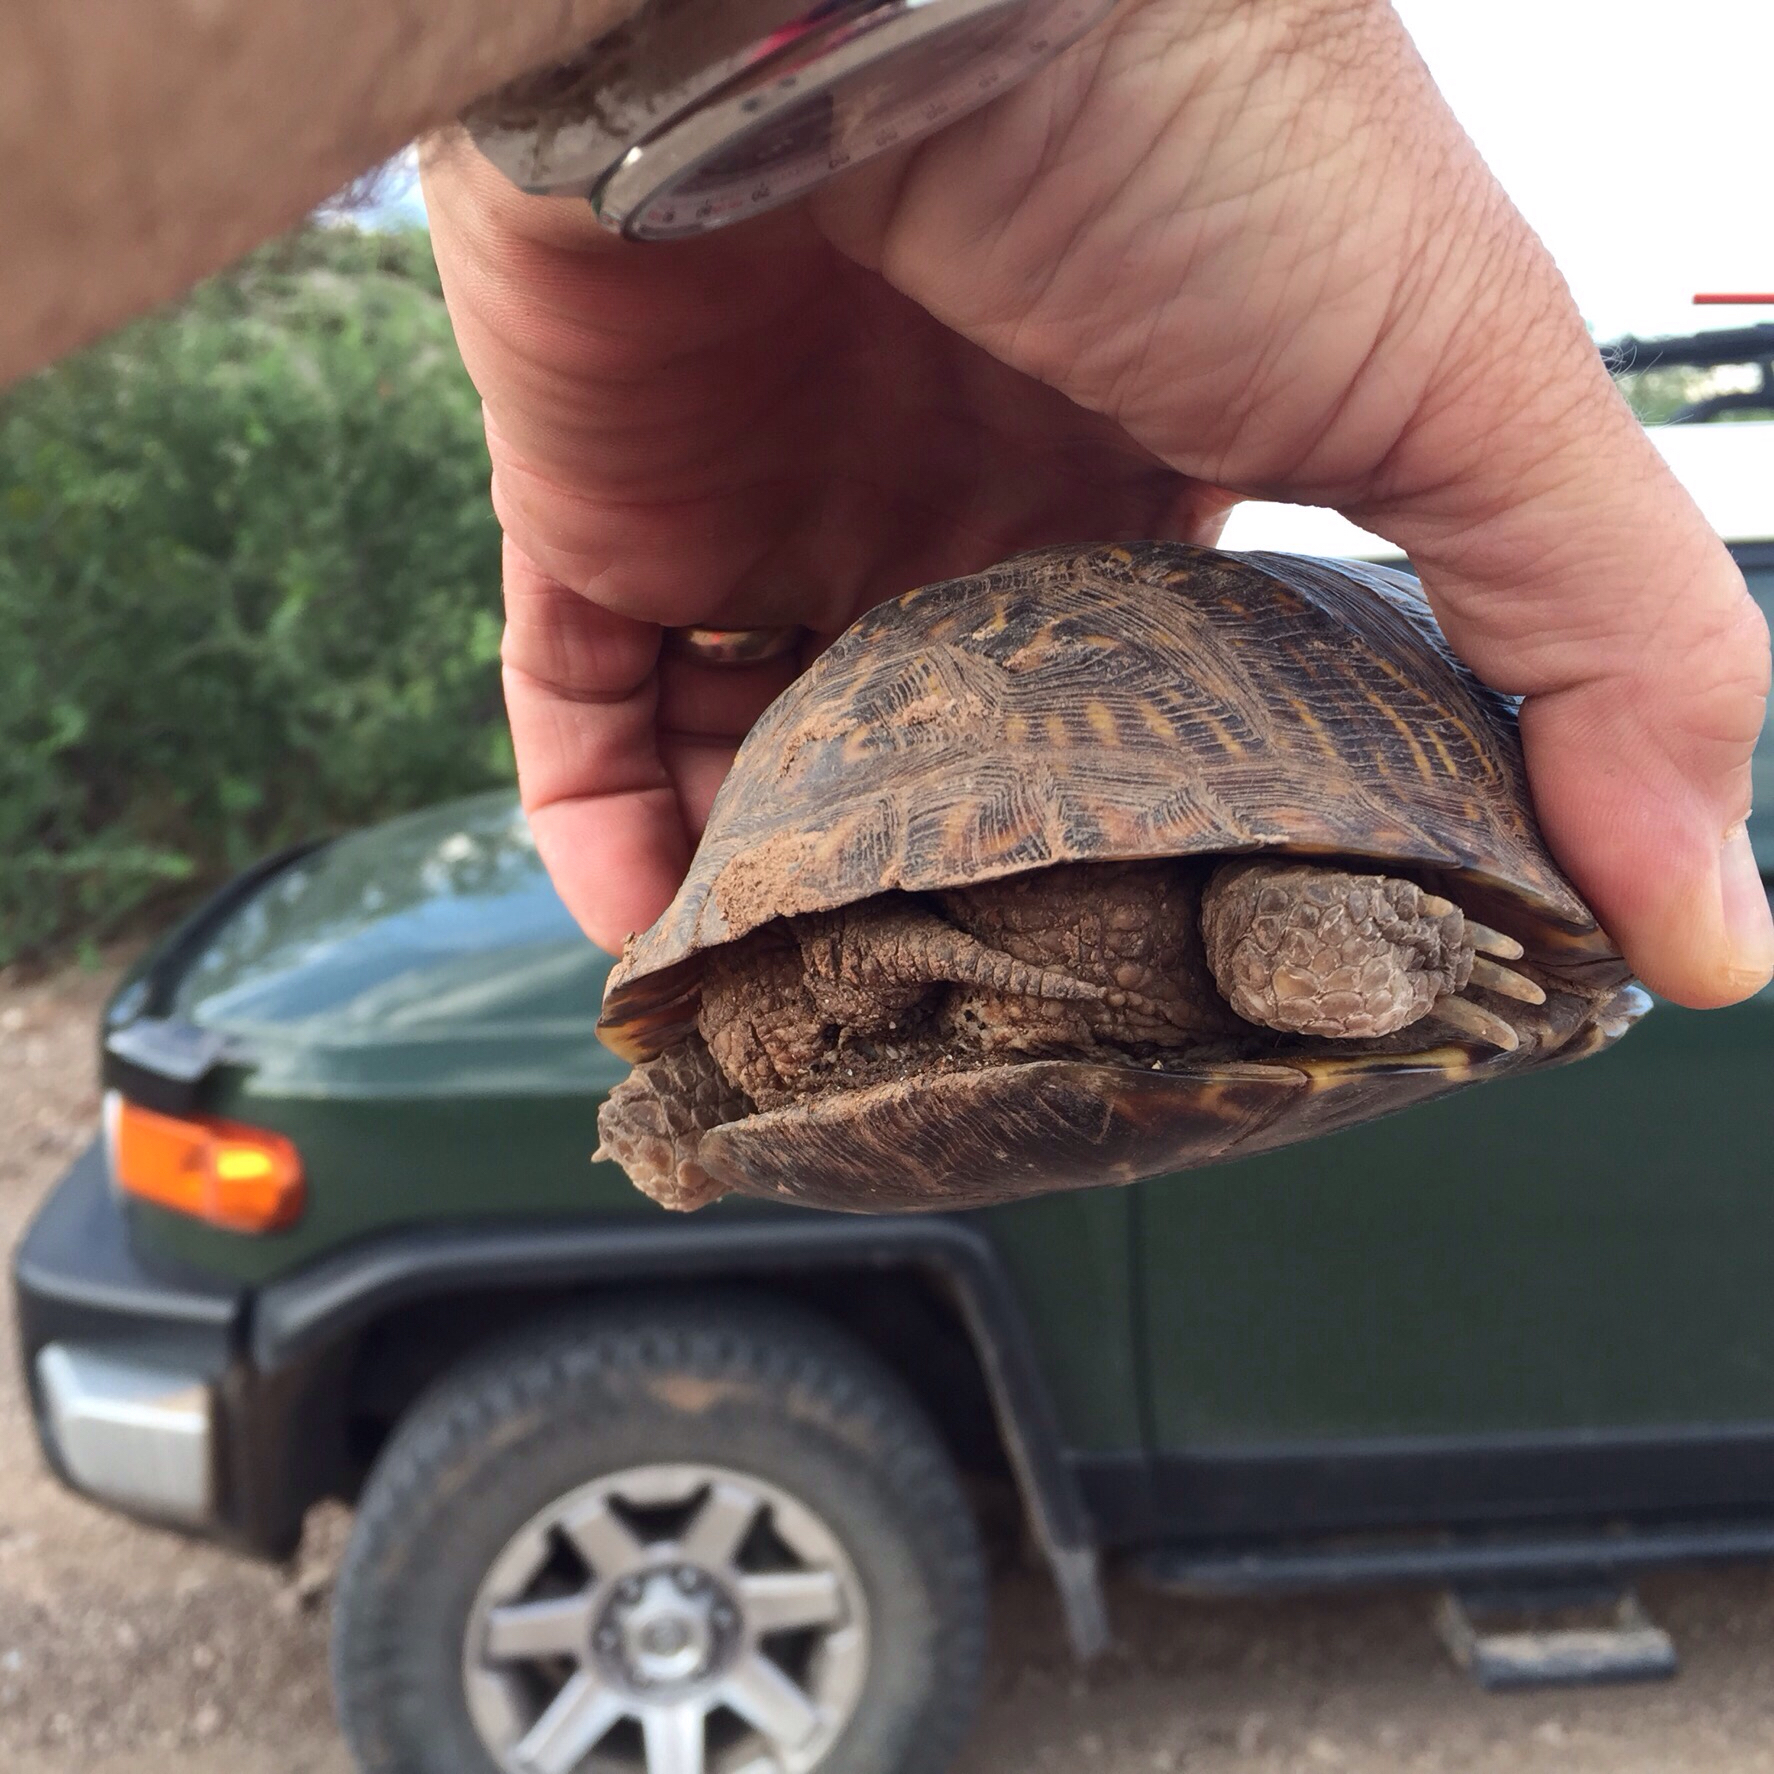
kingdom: Animalia
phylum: Chordata
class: Testudines
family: Emydidae
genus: Terrapene
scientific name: Terrapene ornata
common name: Western box turtle
